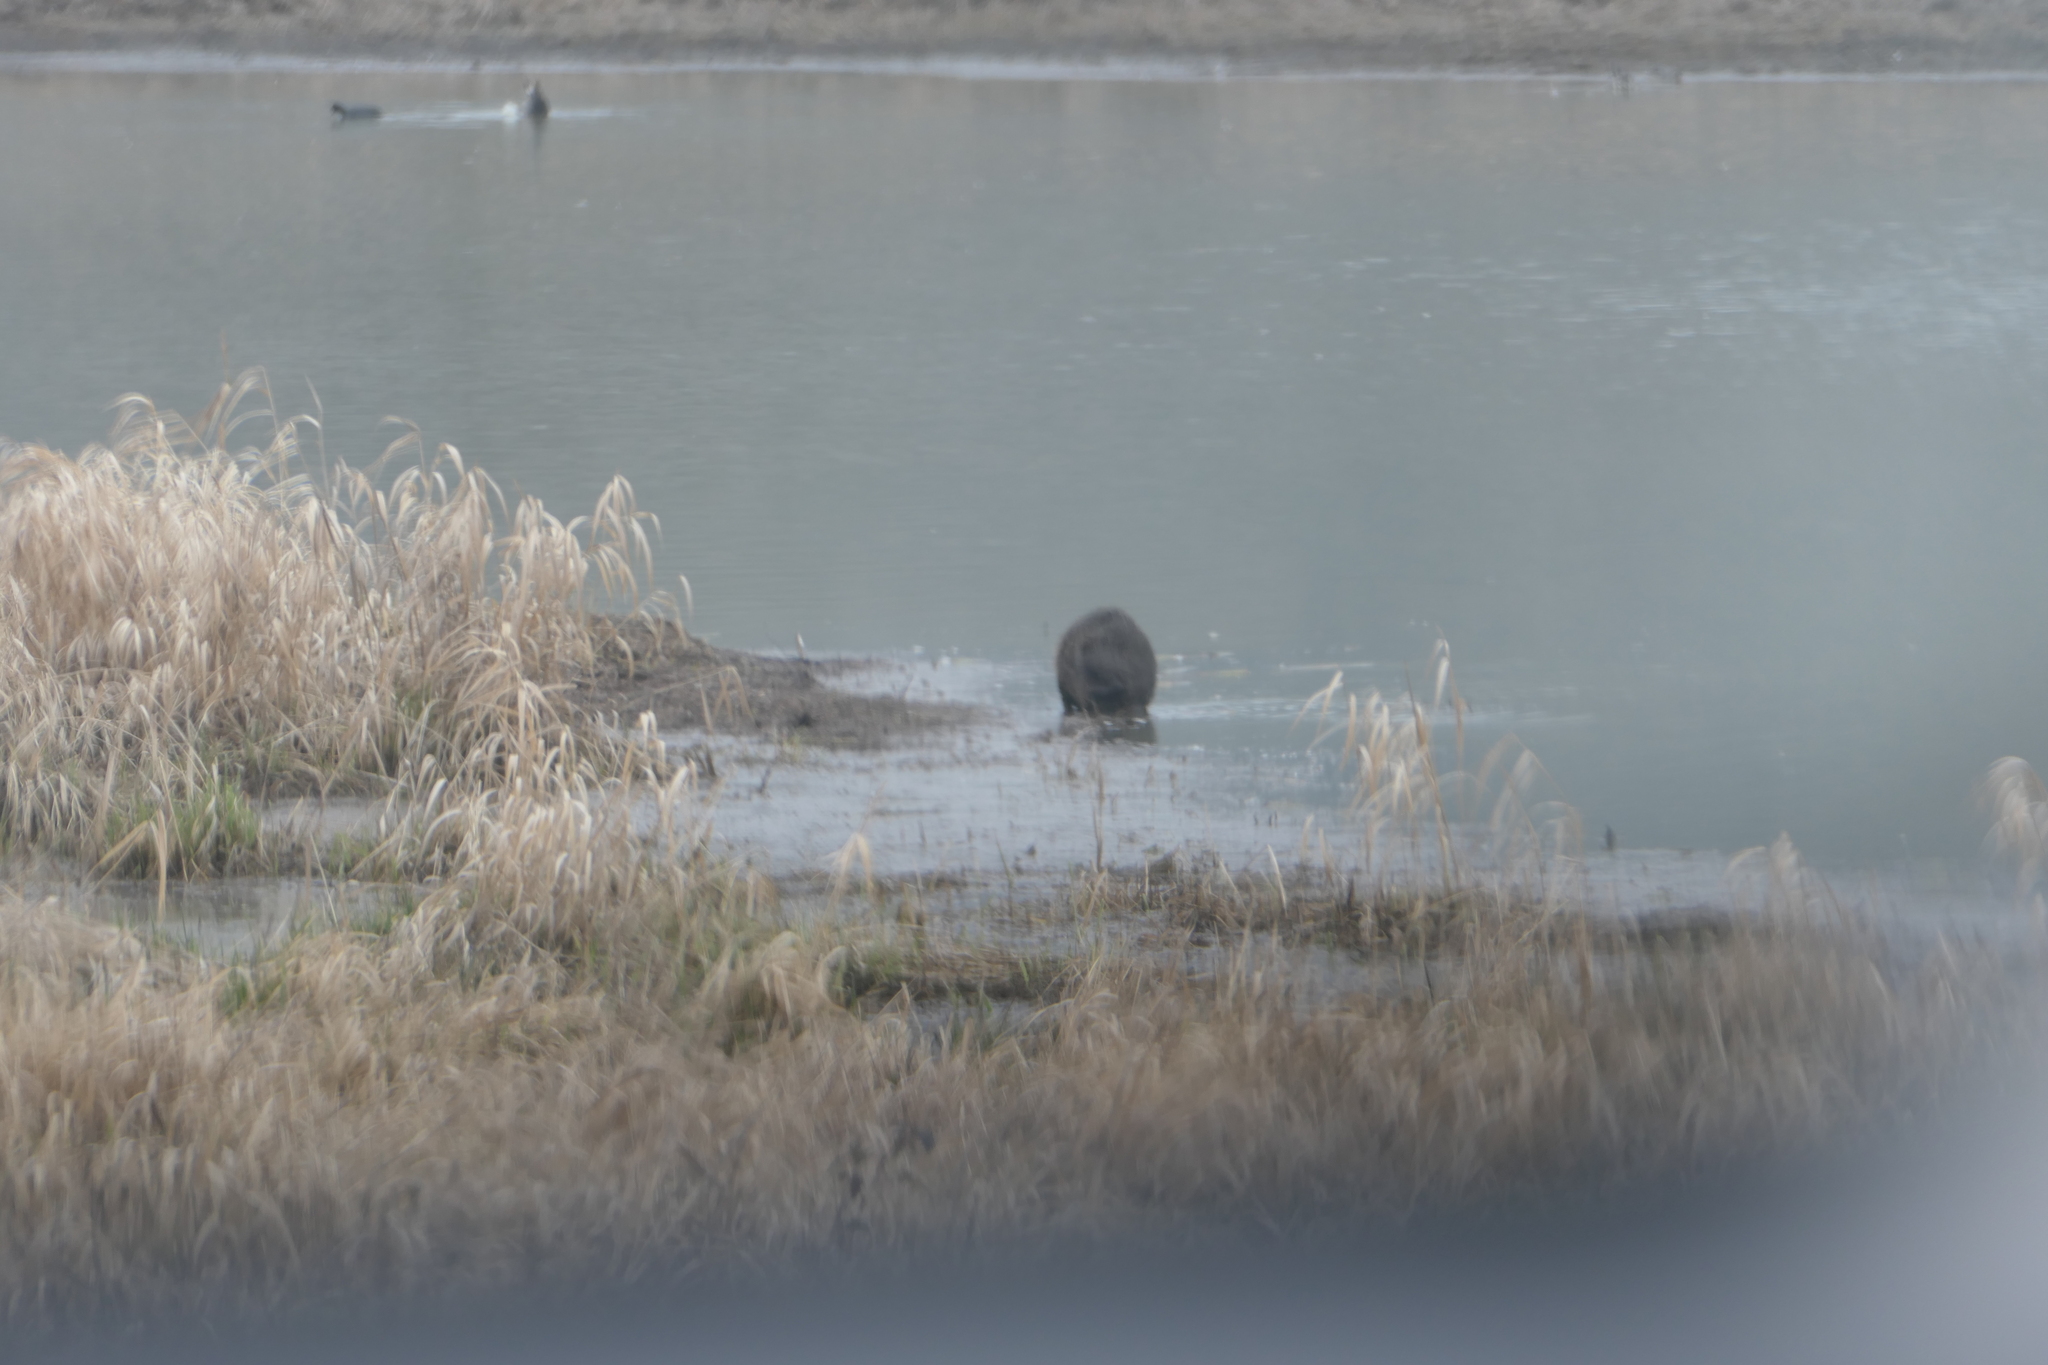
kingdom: Animalia
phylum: Chordata
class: Mammalia
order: Rodentia
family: Myocastoridae
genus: Myocastor
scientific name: Myocastor coypus
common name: Coypu
